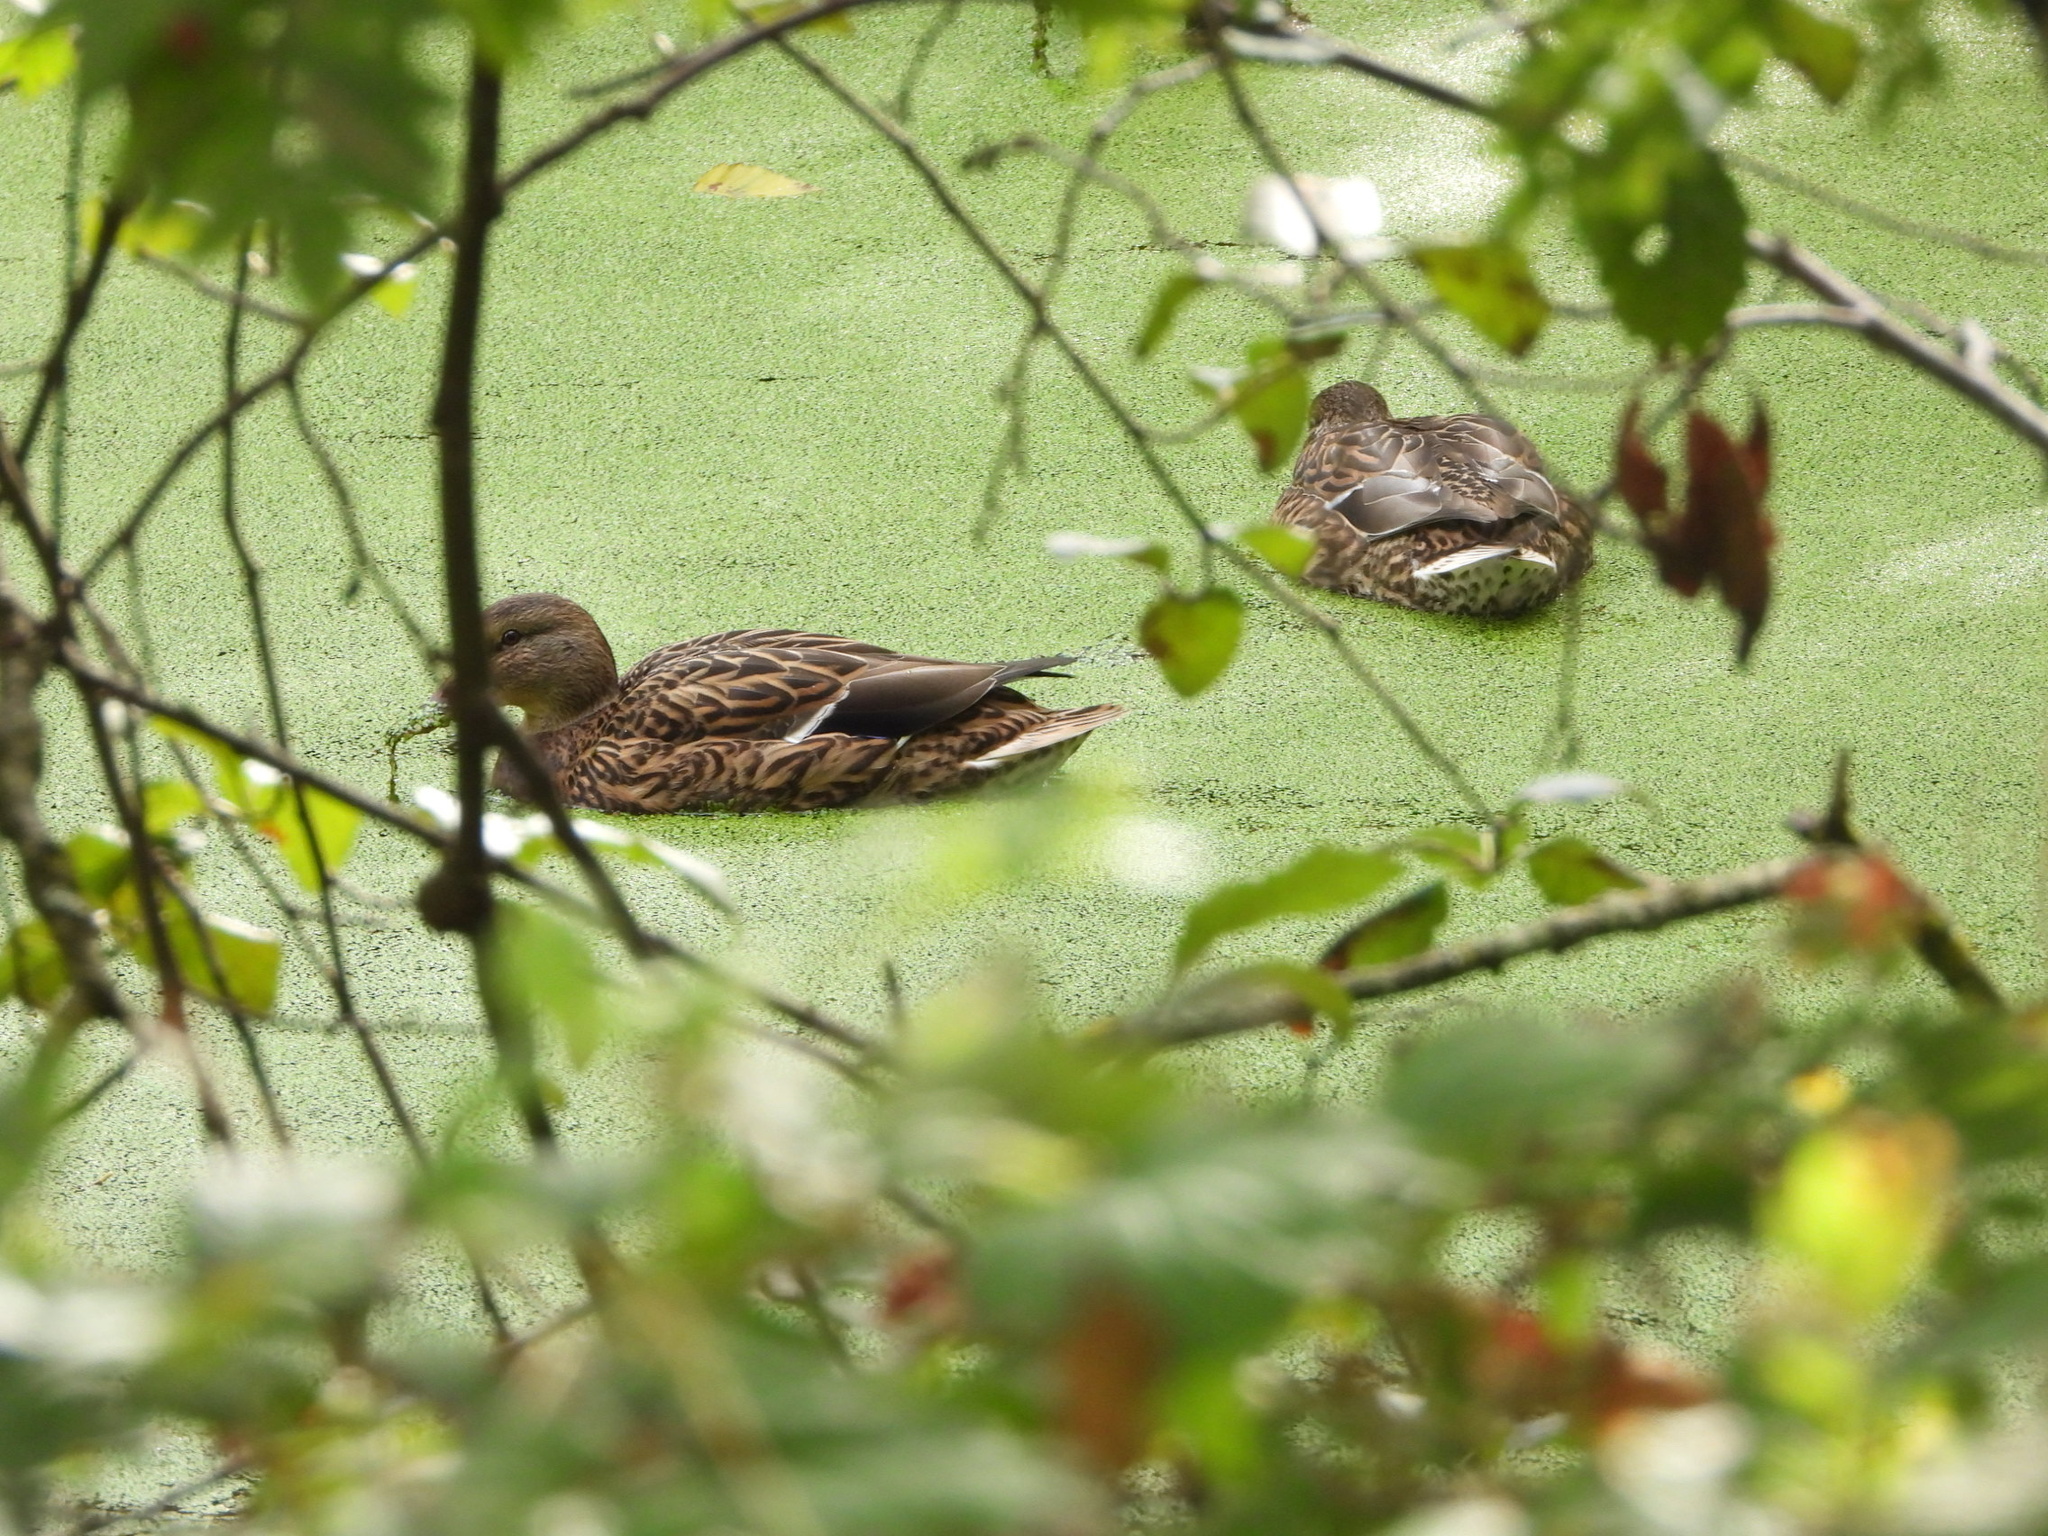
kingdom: Animalia
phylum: Chordata
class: Aves
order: Anseriformes
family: Anatidae
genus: Anas
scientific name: Anas platyrhynchos
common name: Mallard
